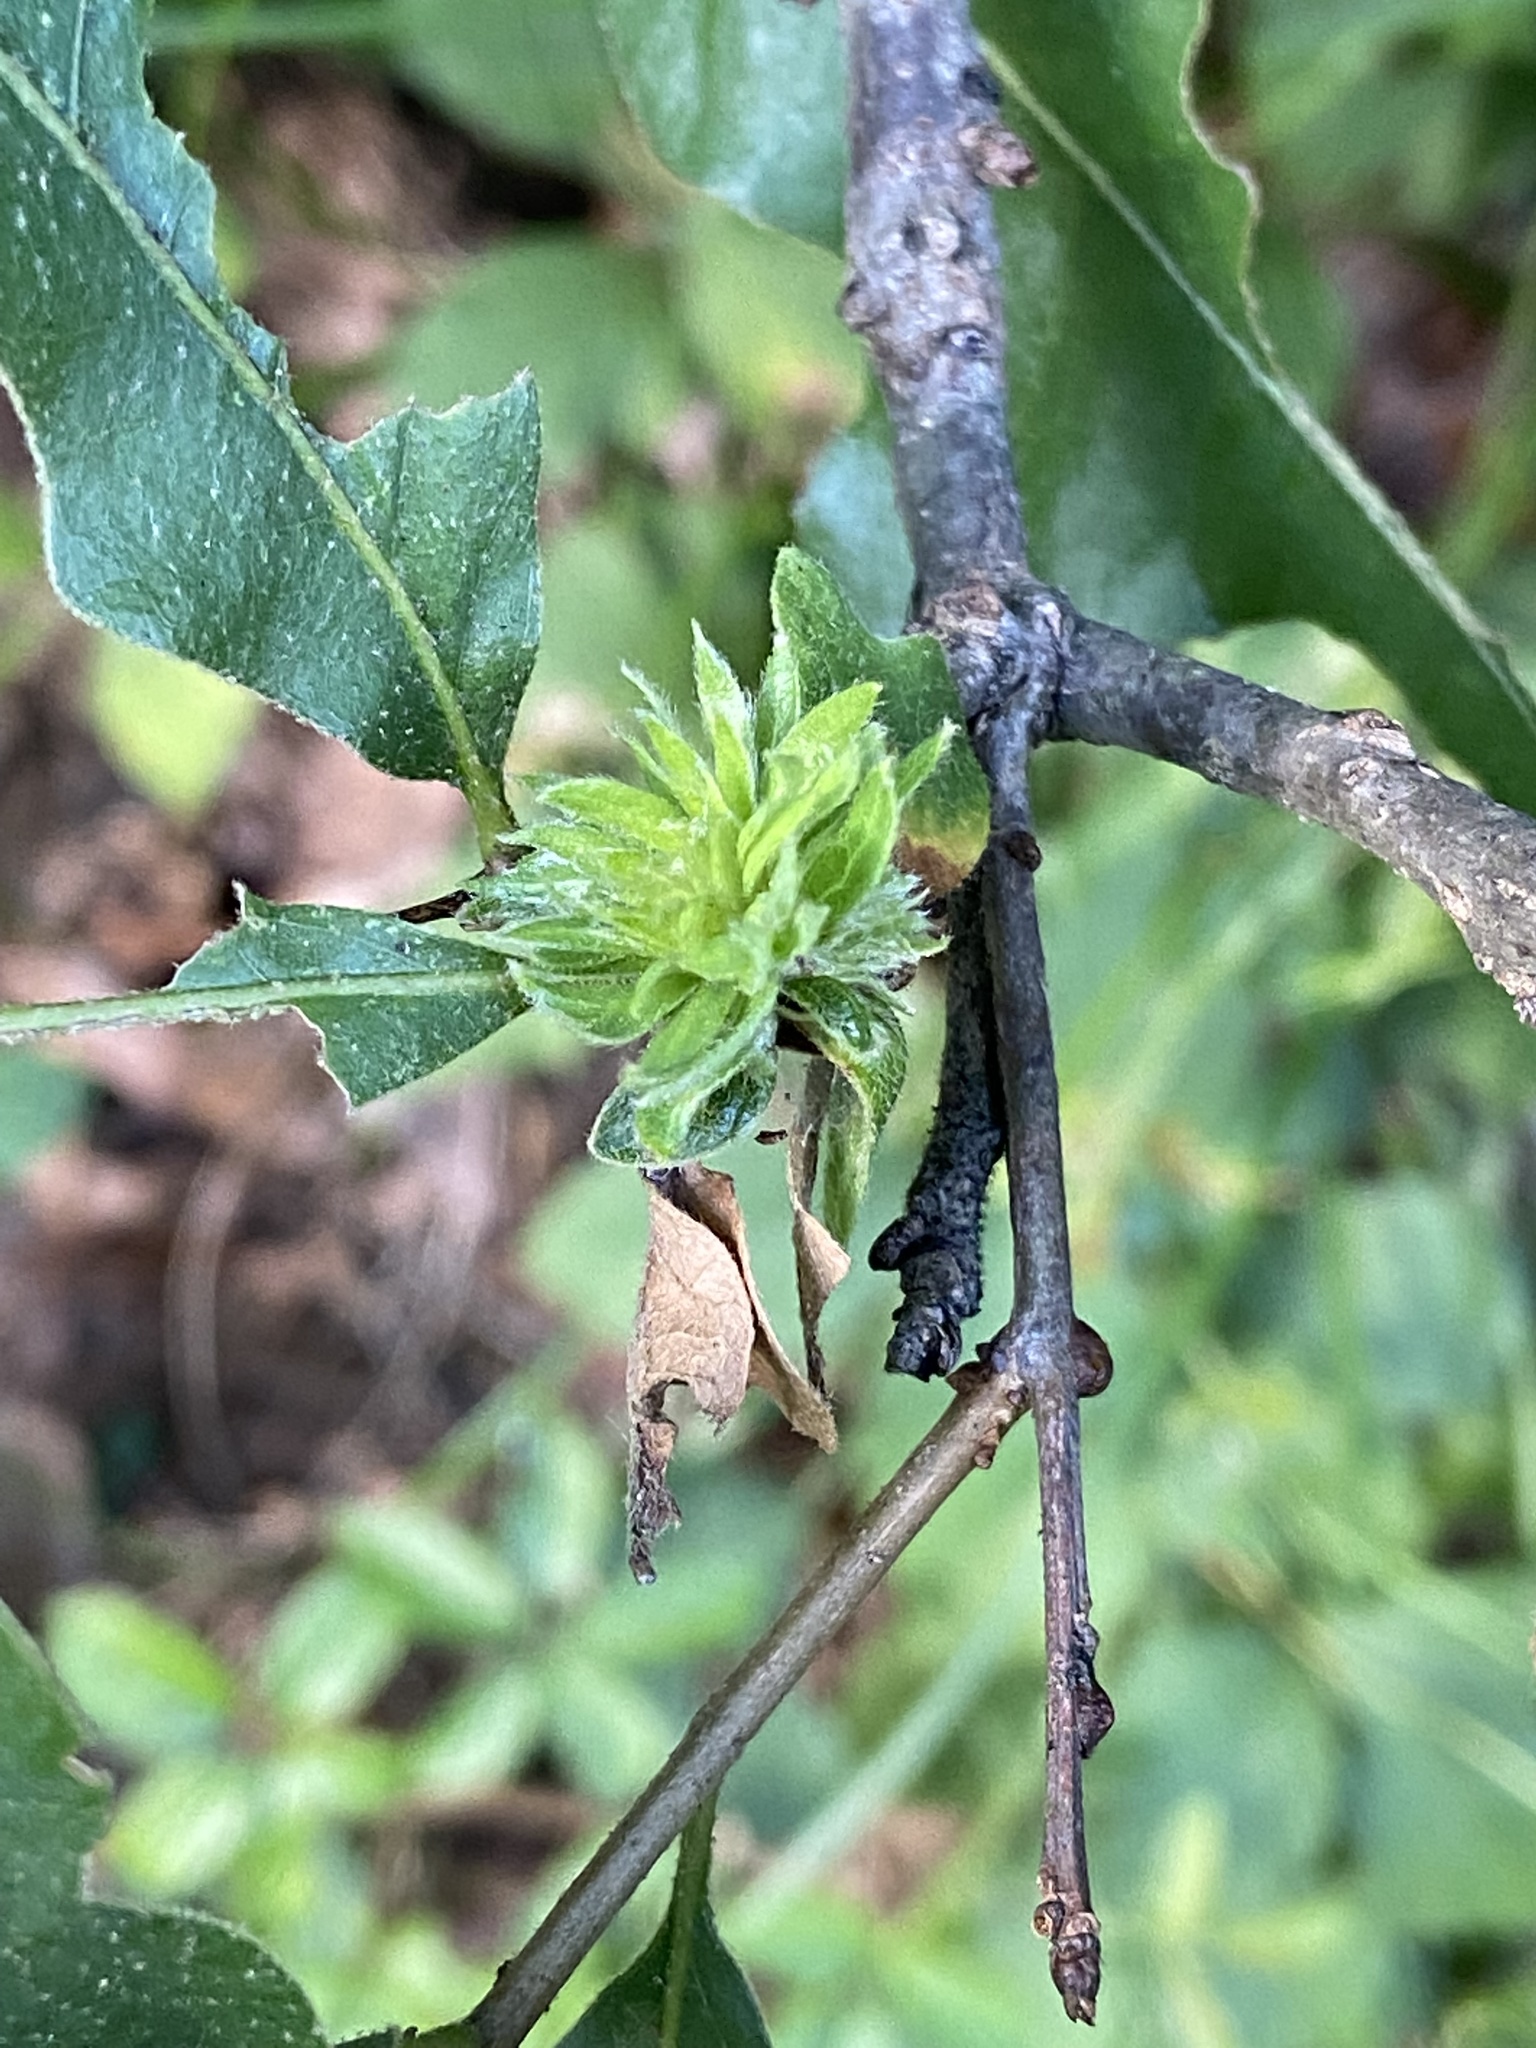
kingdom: Animalia
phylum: Arthropoda
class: Insecta
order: Hymenoptera
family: Cynipidae
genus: Andricus
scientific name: Andricus
